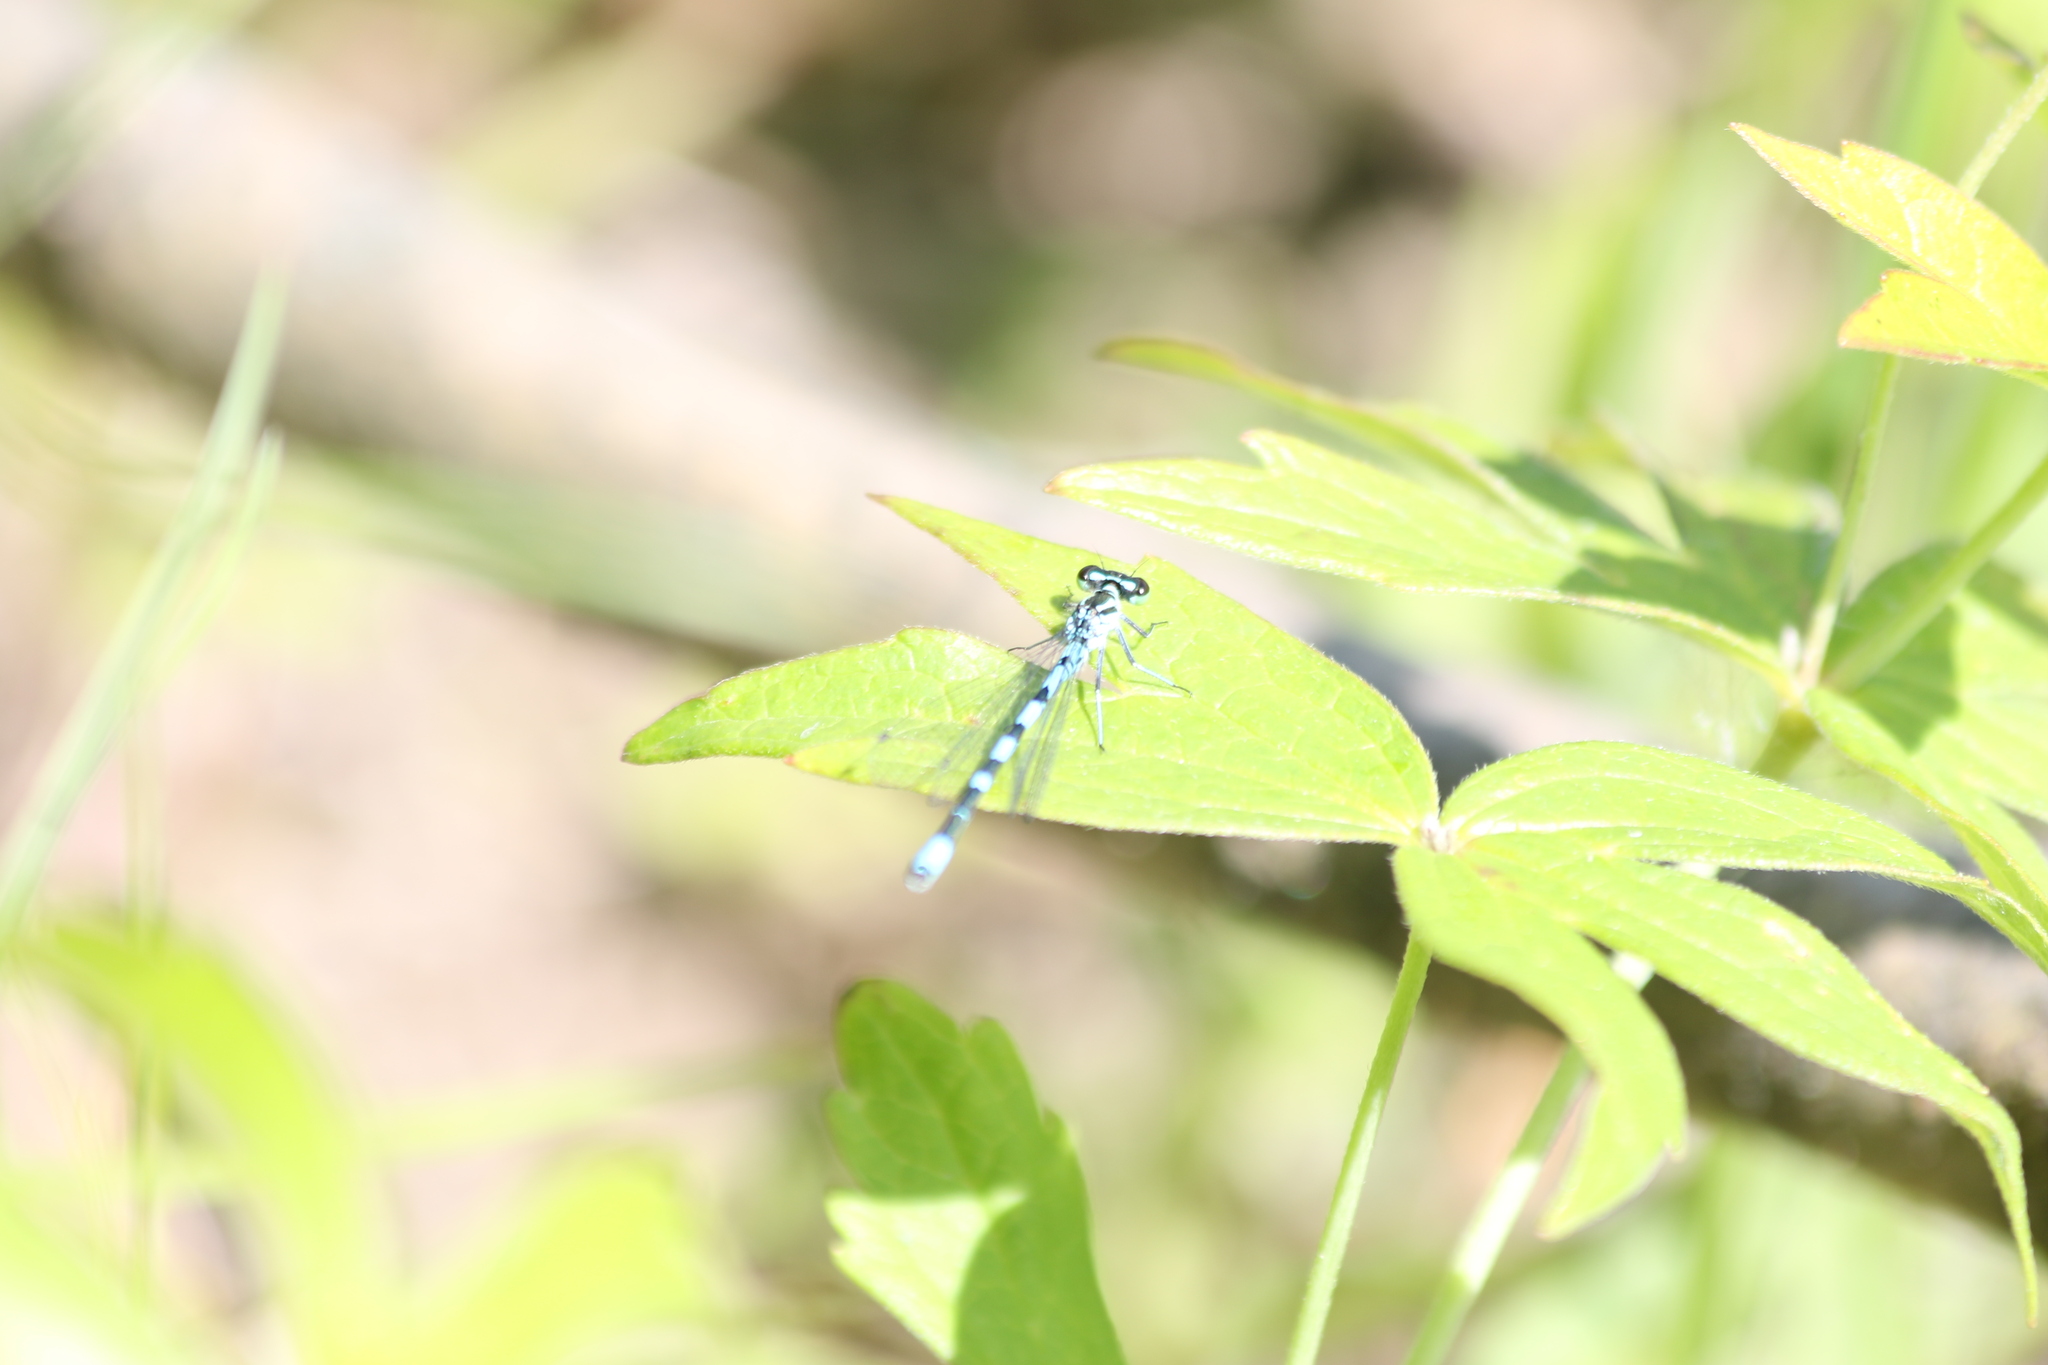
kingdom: Animalia
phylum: Arthropoda
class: Insecta
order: Odonata
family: Coenagrionidae
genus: Coenagrion
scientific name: Coenagrion hastulatum
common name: Spearhead bluet
